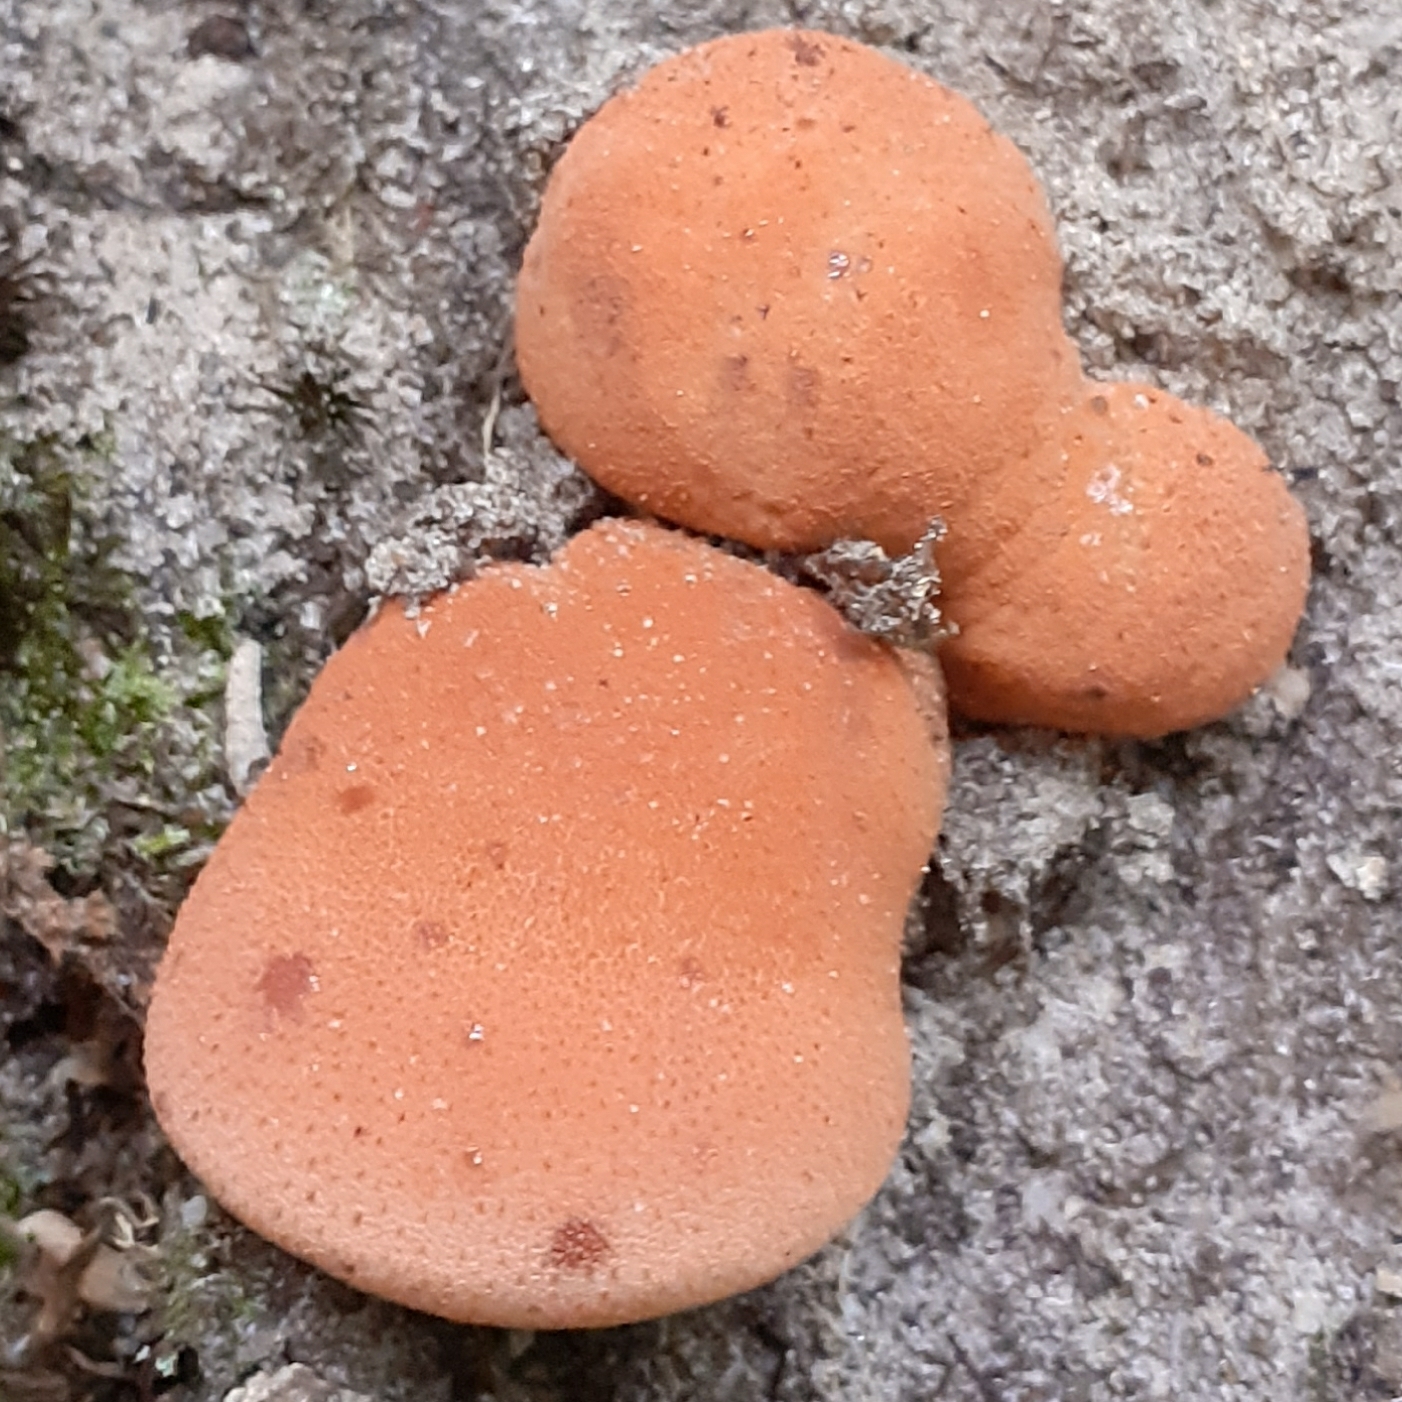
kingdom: Fungi
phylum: Basidiomycota
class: Agaricomycetes
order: Agaricales
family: Fistulinaceae
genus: Fistulina
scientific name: Fistulina hepatica
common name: Beef-steak fungus
